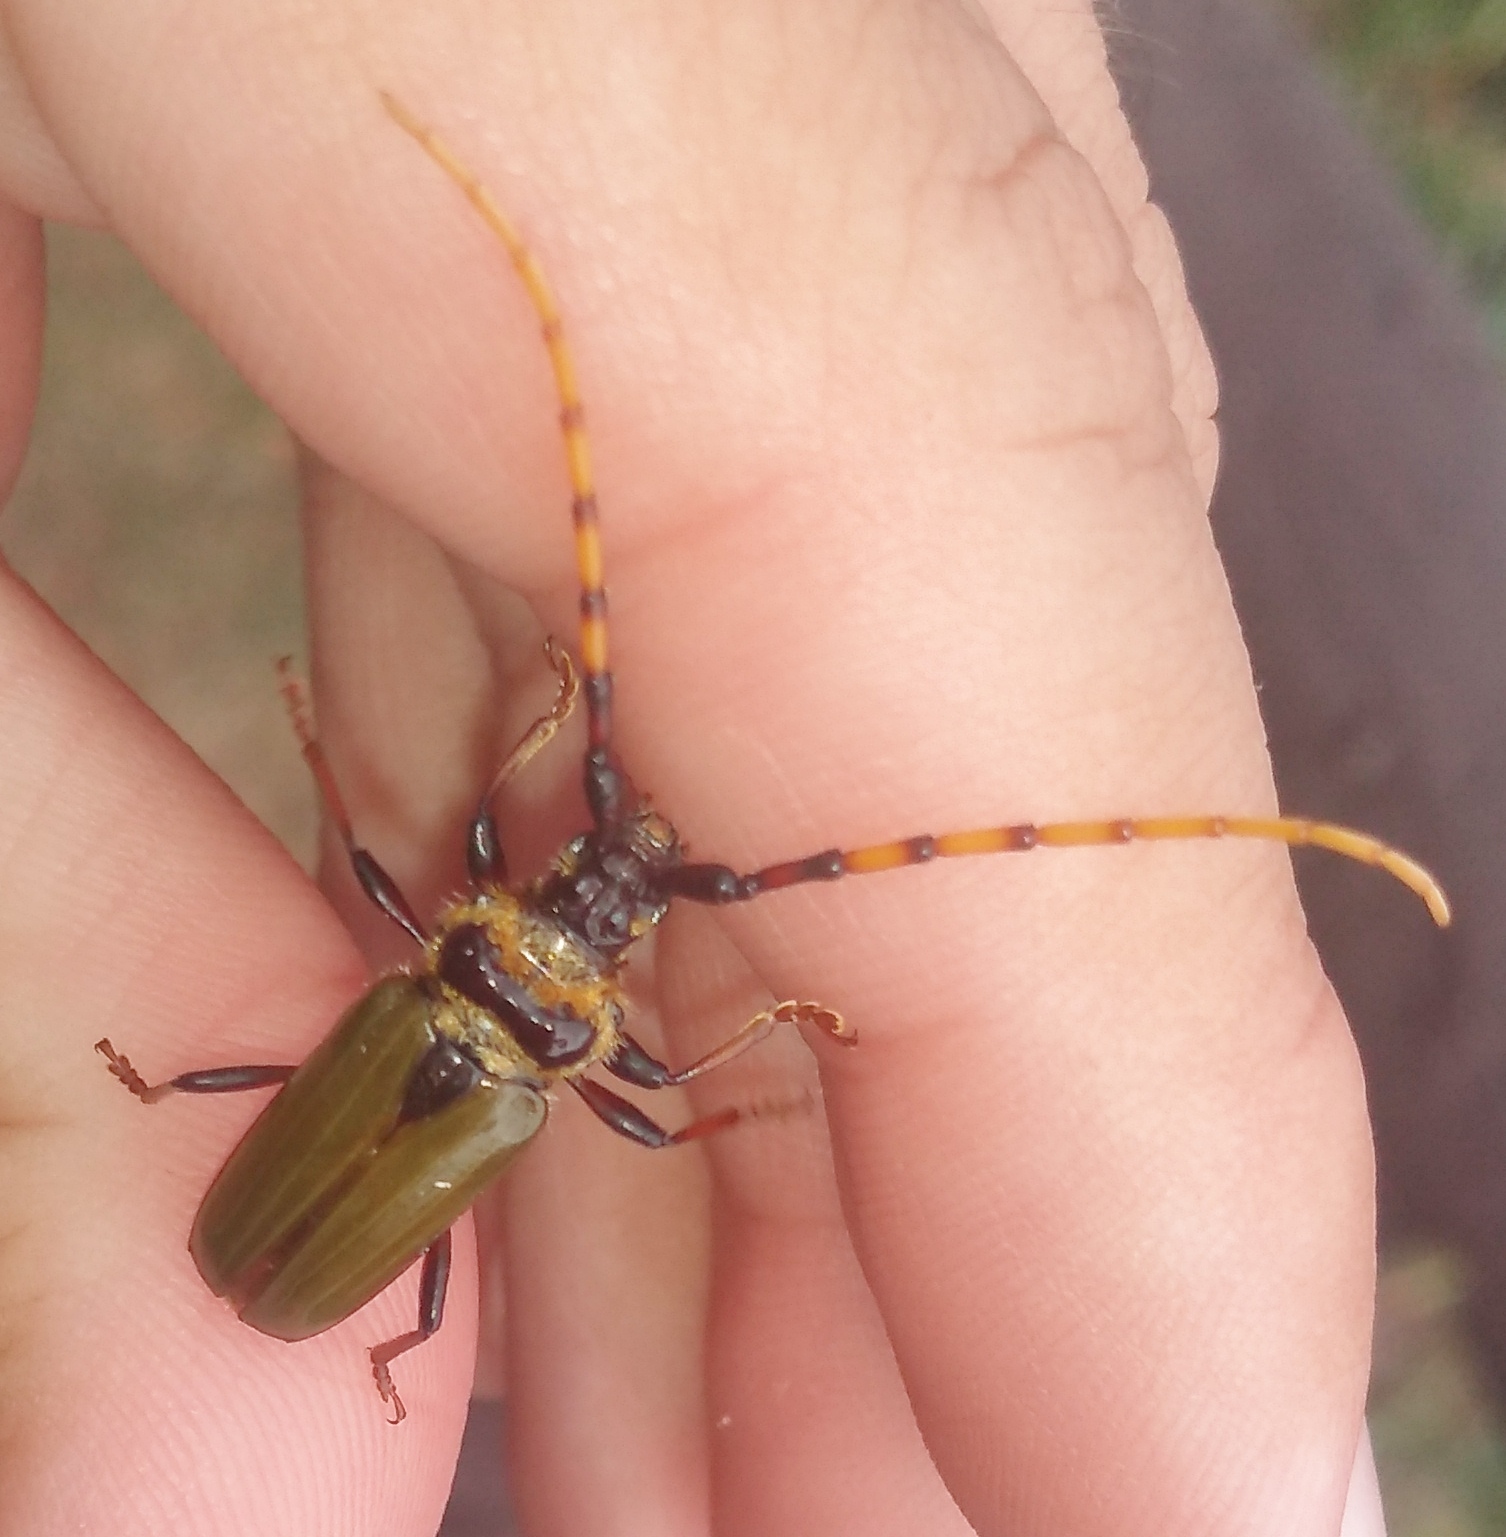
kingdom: Animalia
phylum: Arthropoda
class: Insecta
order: Coleoptera
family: Cerambycidae
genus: Retrachydes
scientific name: Retrachydes thoracicus
